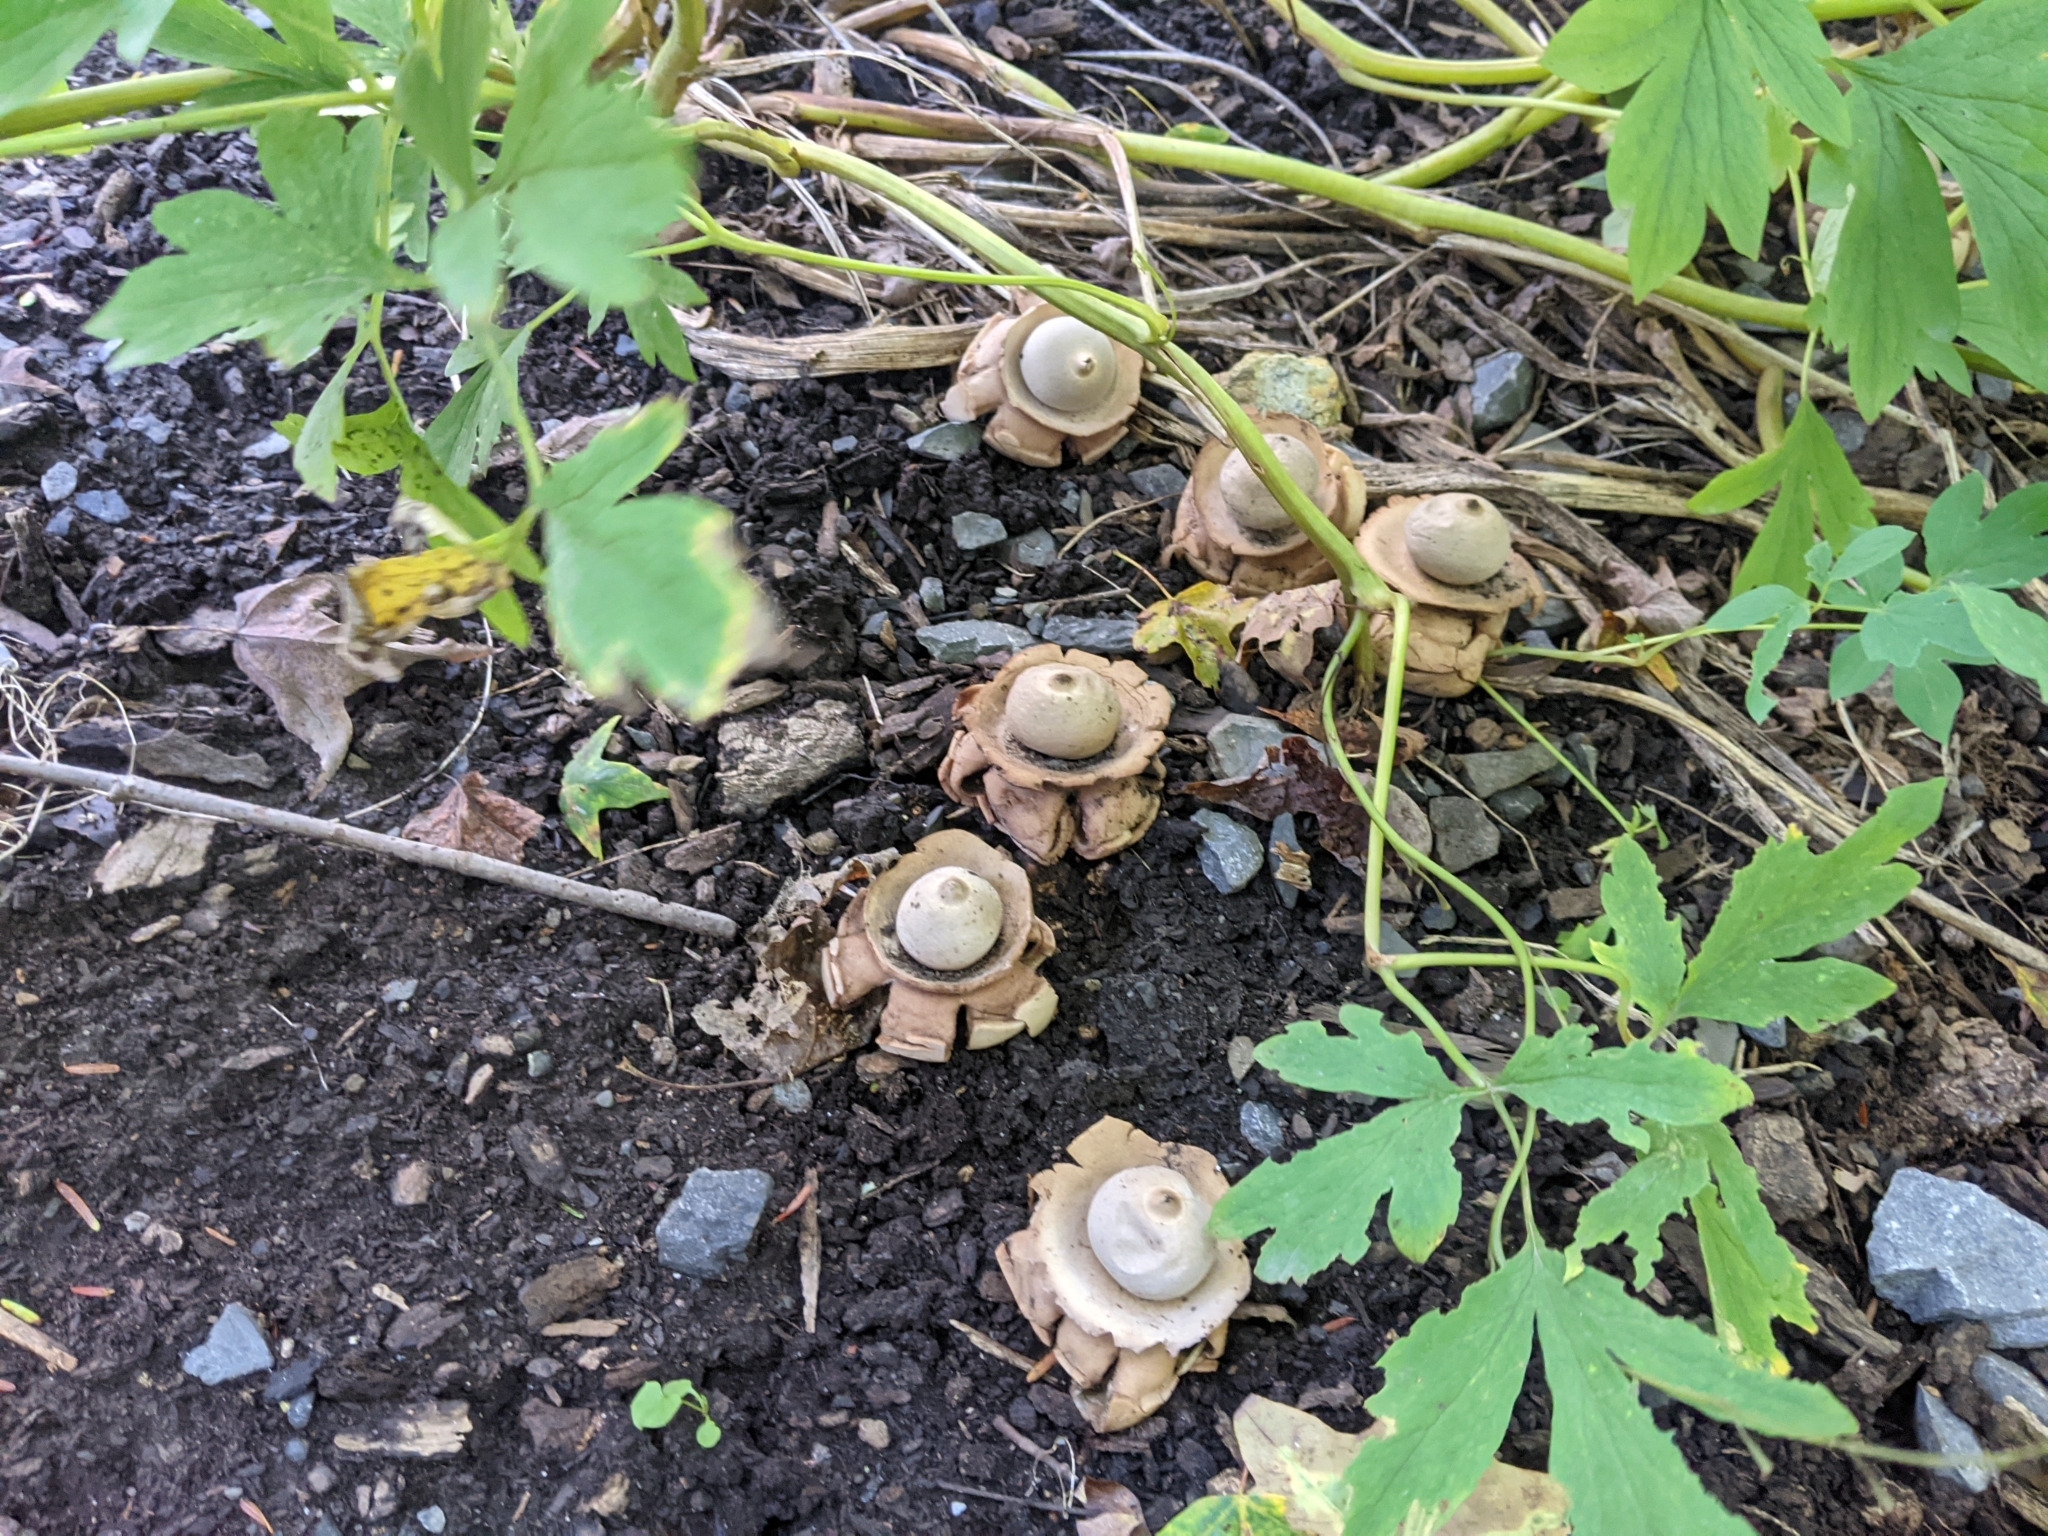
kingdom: Fungi
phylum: Basidiomycota
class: Agaricomycetes
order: Geastrales
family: Geastraceae
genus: Geastrum
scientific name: Geastrum triplex
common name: Collared earthstar
